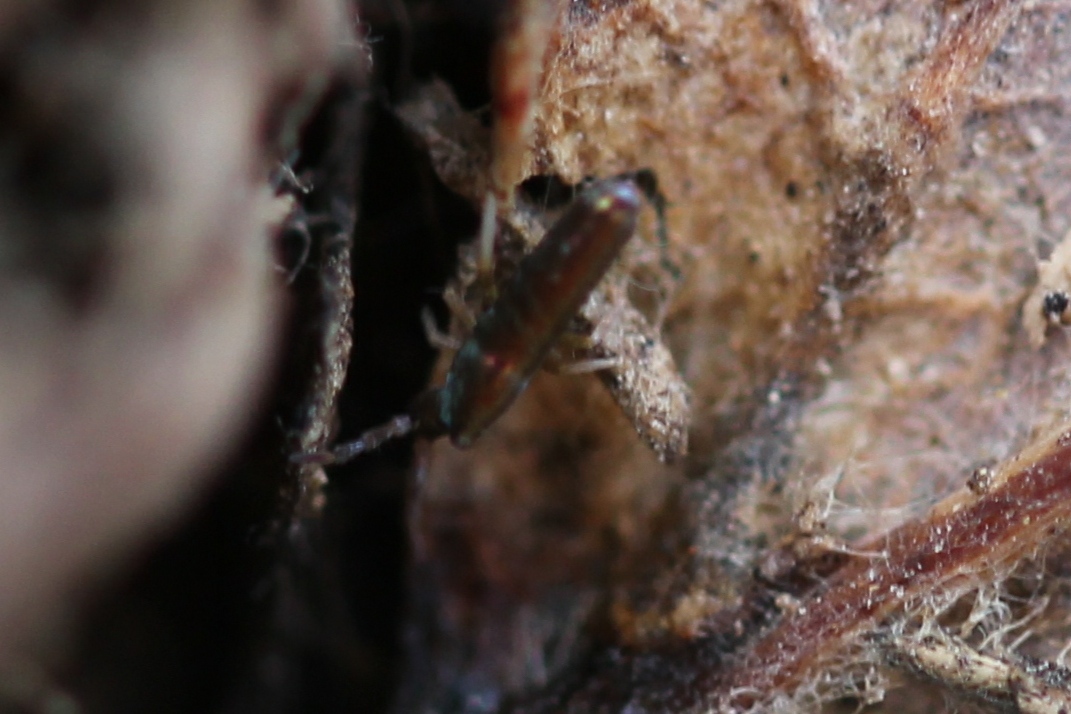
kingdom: Animalia
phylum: Arthropoda
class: Collembola
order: Entomobryomorpha
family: Entomobryidae
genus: Lepidocyrtus
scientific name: Lepidocyrtus paradoxus
